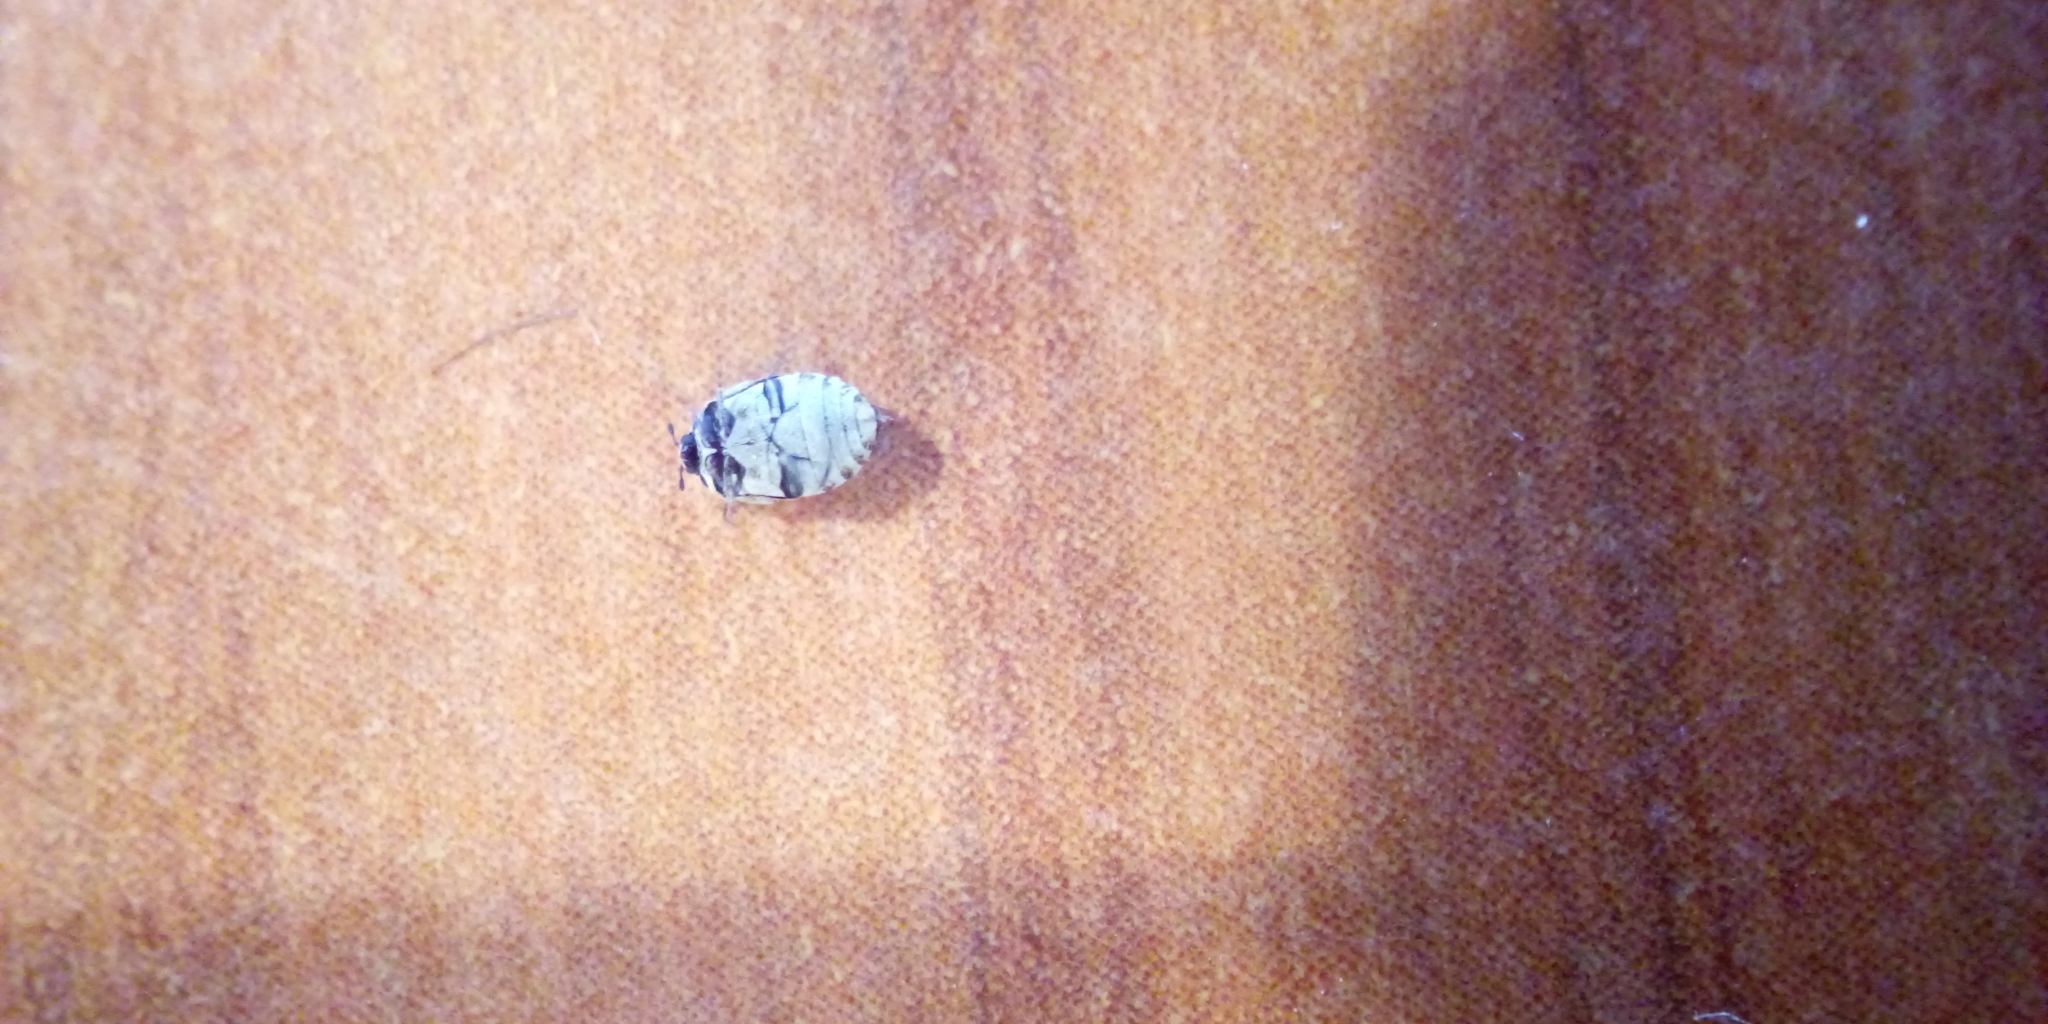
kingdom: Animalia
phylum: Arthropoda
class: Insecta
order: Coleoptera
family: Dermestidae
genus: Anthrenus
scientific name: Anthrenus verbasci
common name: Varied carpet beetle
